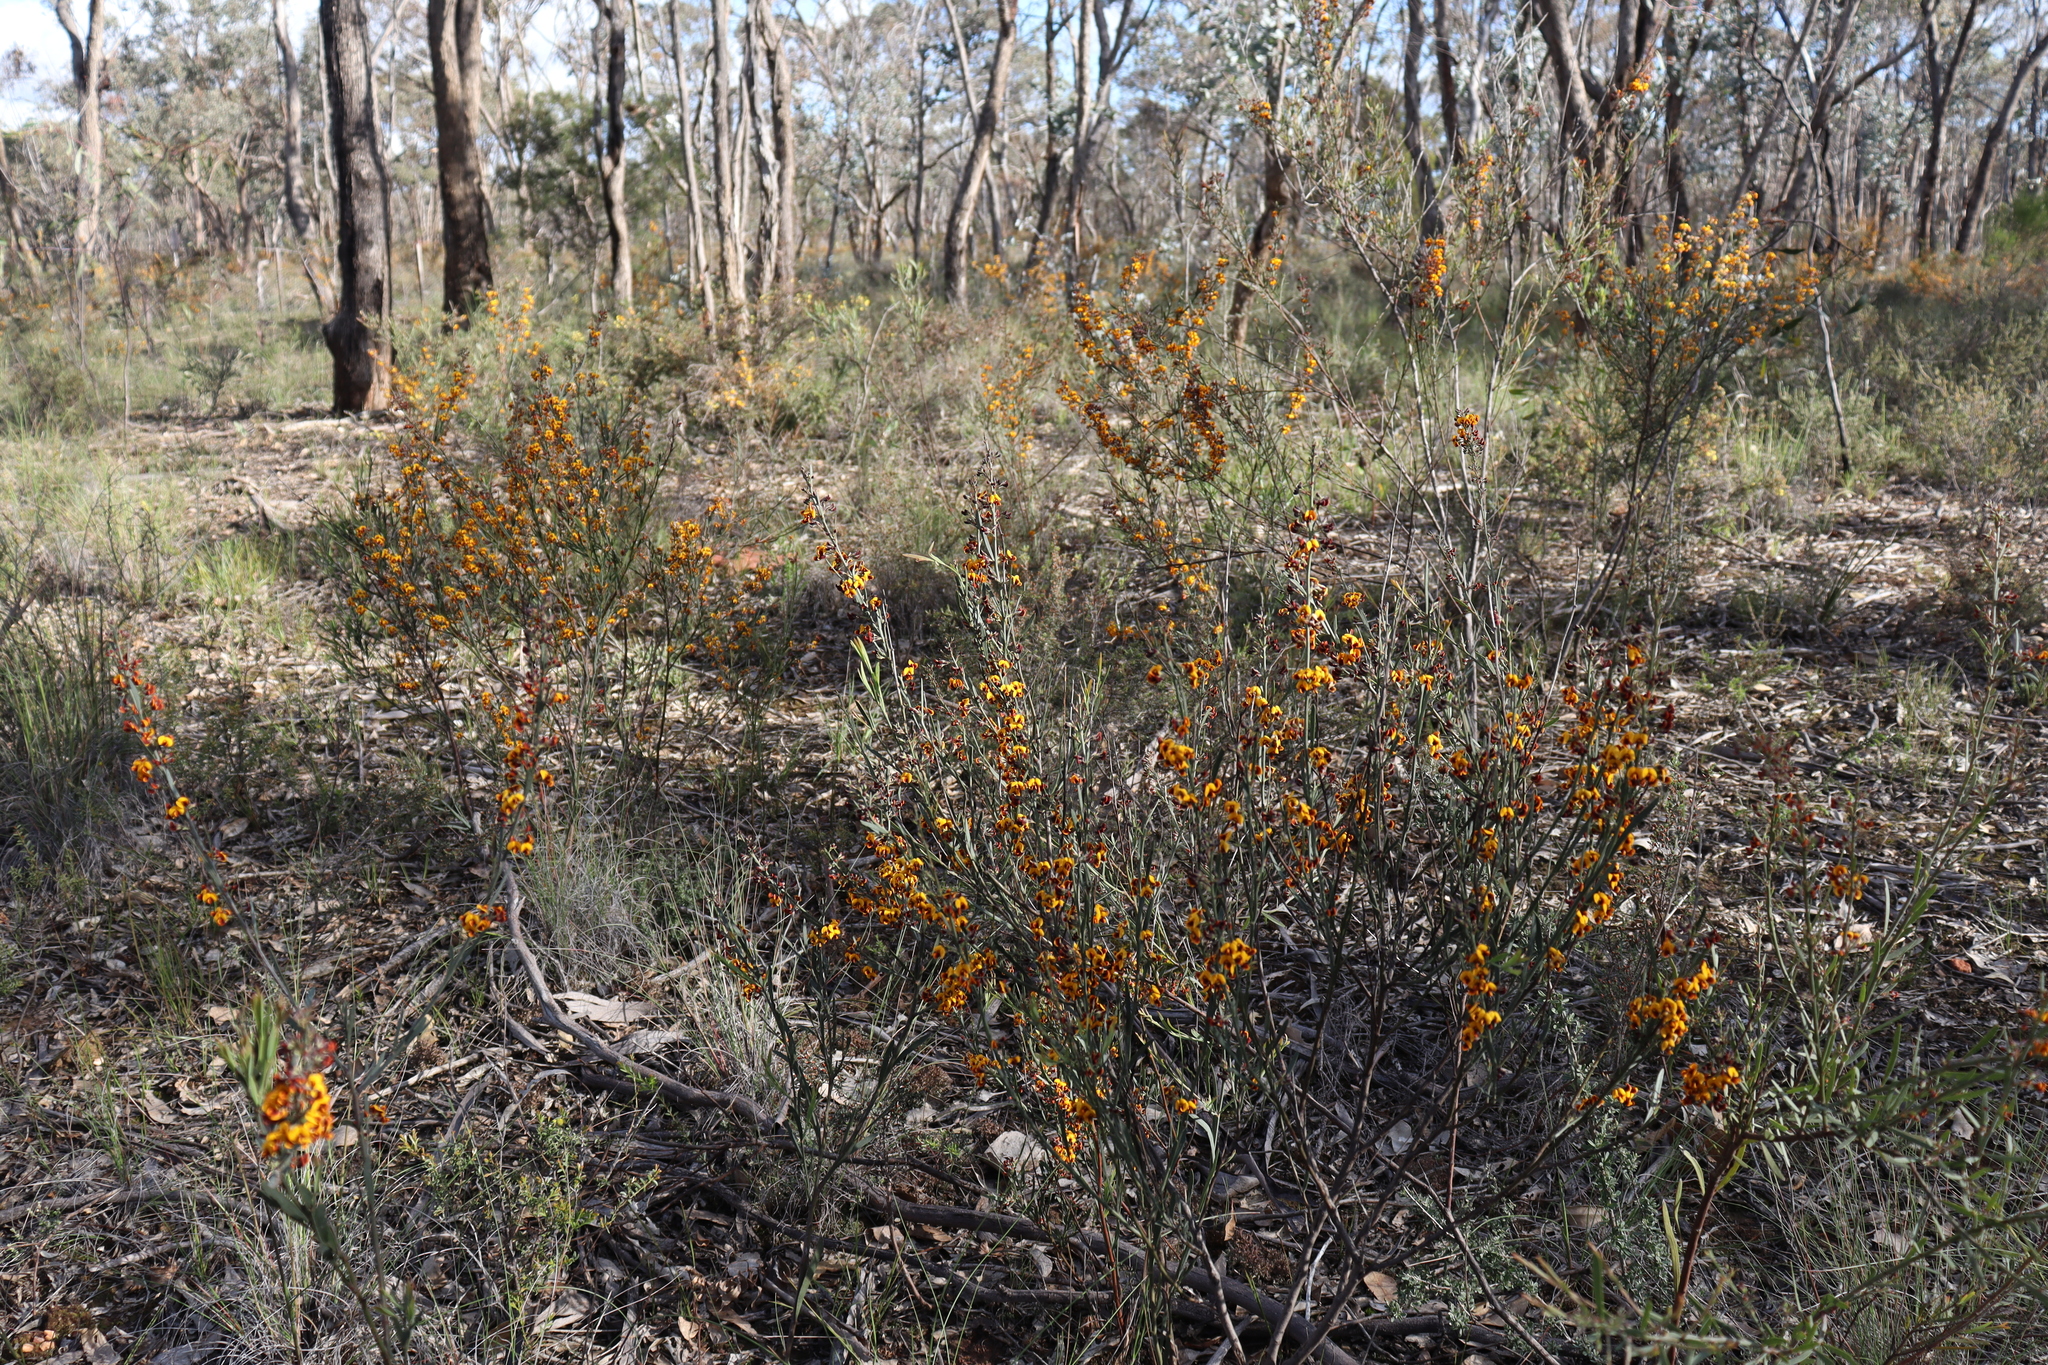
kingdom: Plantae
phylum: Tracheophyta
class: Magnoliopsida
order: Fabales
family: Fabaceae
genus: Daviesia
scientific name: Daviesia leptophylla
